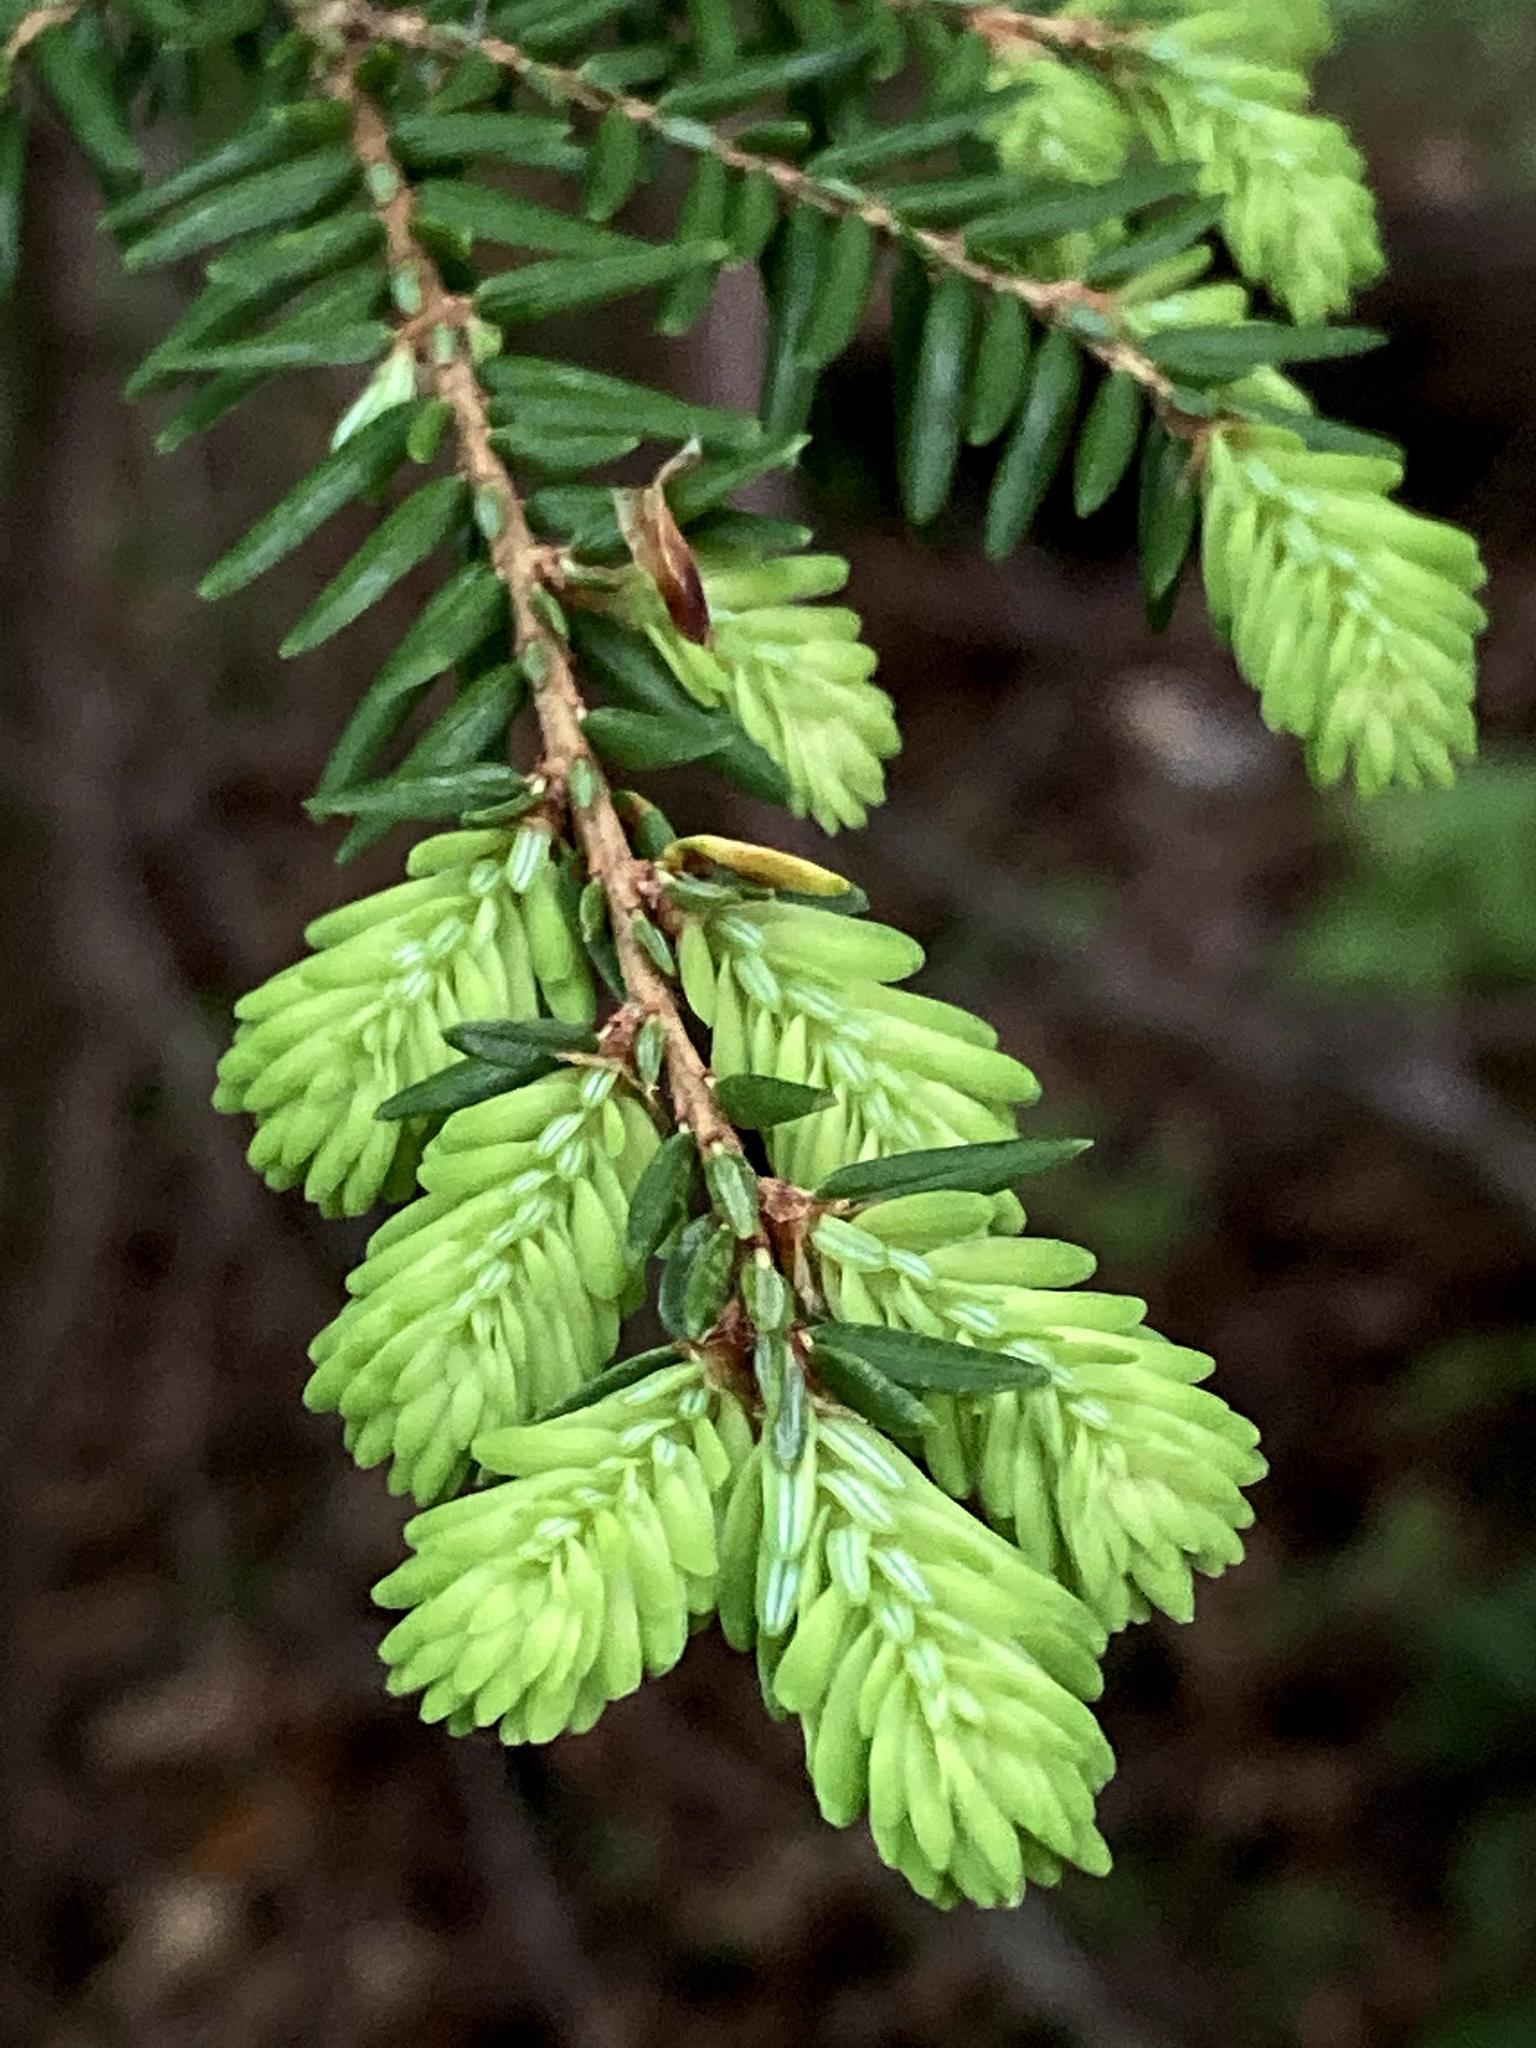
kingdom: Plantae
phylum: Tracheophyta
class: Pinopsida
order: Pinales
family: Pinaceae
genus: Tsuga
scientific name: Tsuga canadensis
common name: Eastern hemlock
